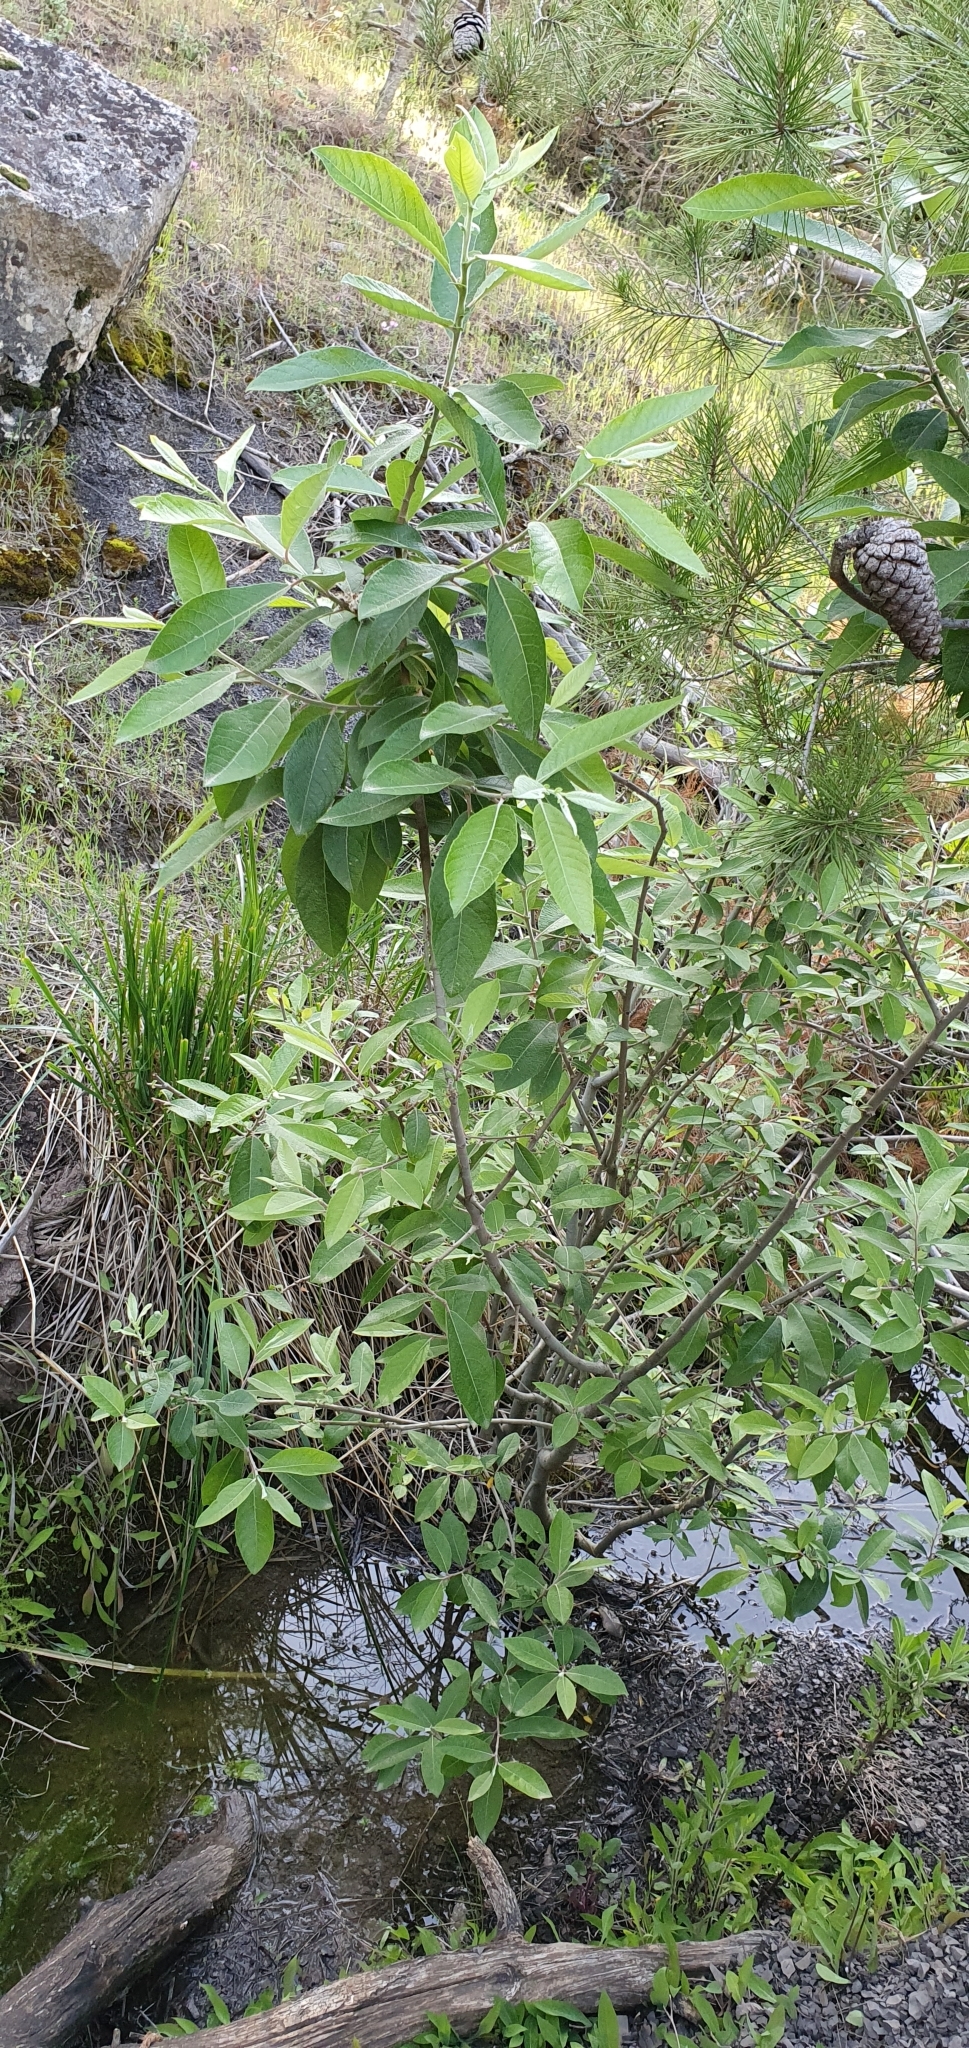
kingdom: Plantae
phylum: Tracheophyta
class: Magnoliopsida
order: Malpighiales
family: Salicaceae
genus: Salix
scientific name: Salix pedicellata
